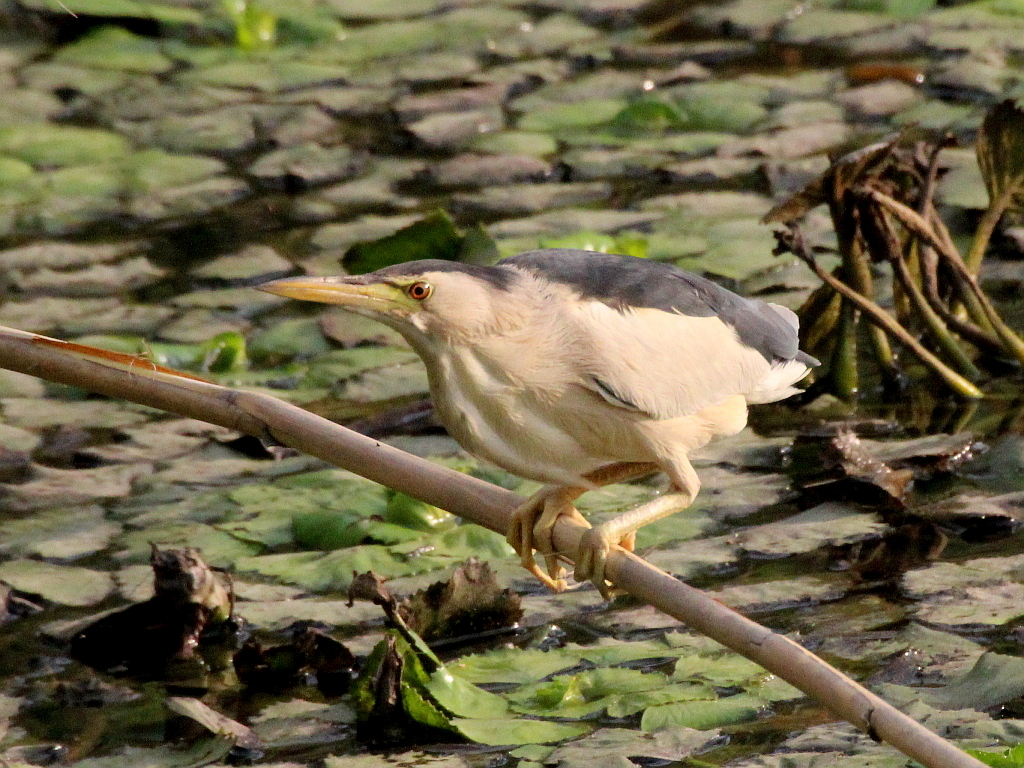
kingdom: Animalia
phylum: Chordata
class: Aves
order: Pelecaniformes
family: Ardeidae
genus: Ixobrychus
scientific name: Ixobrychus minutus
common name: Little bittern
